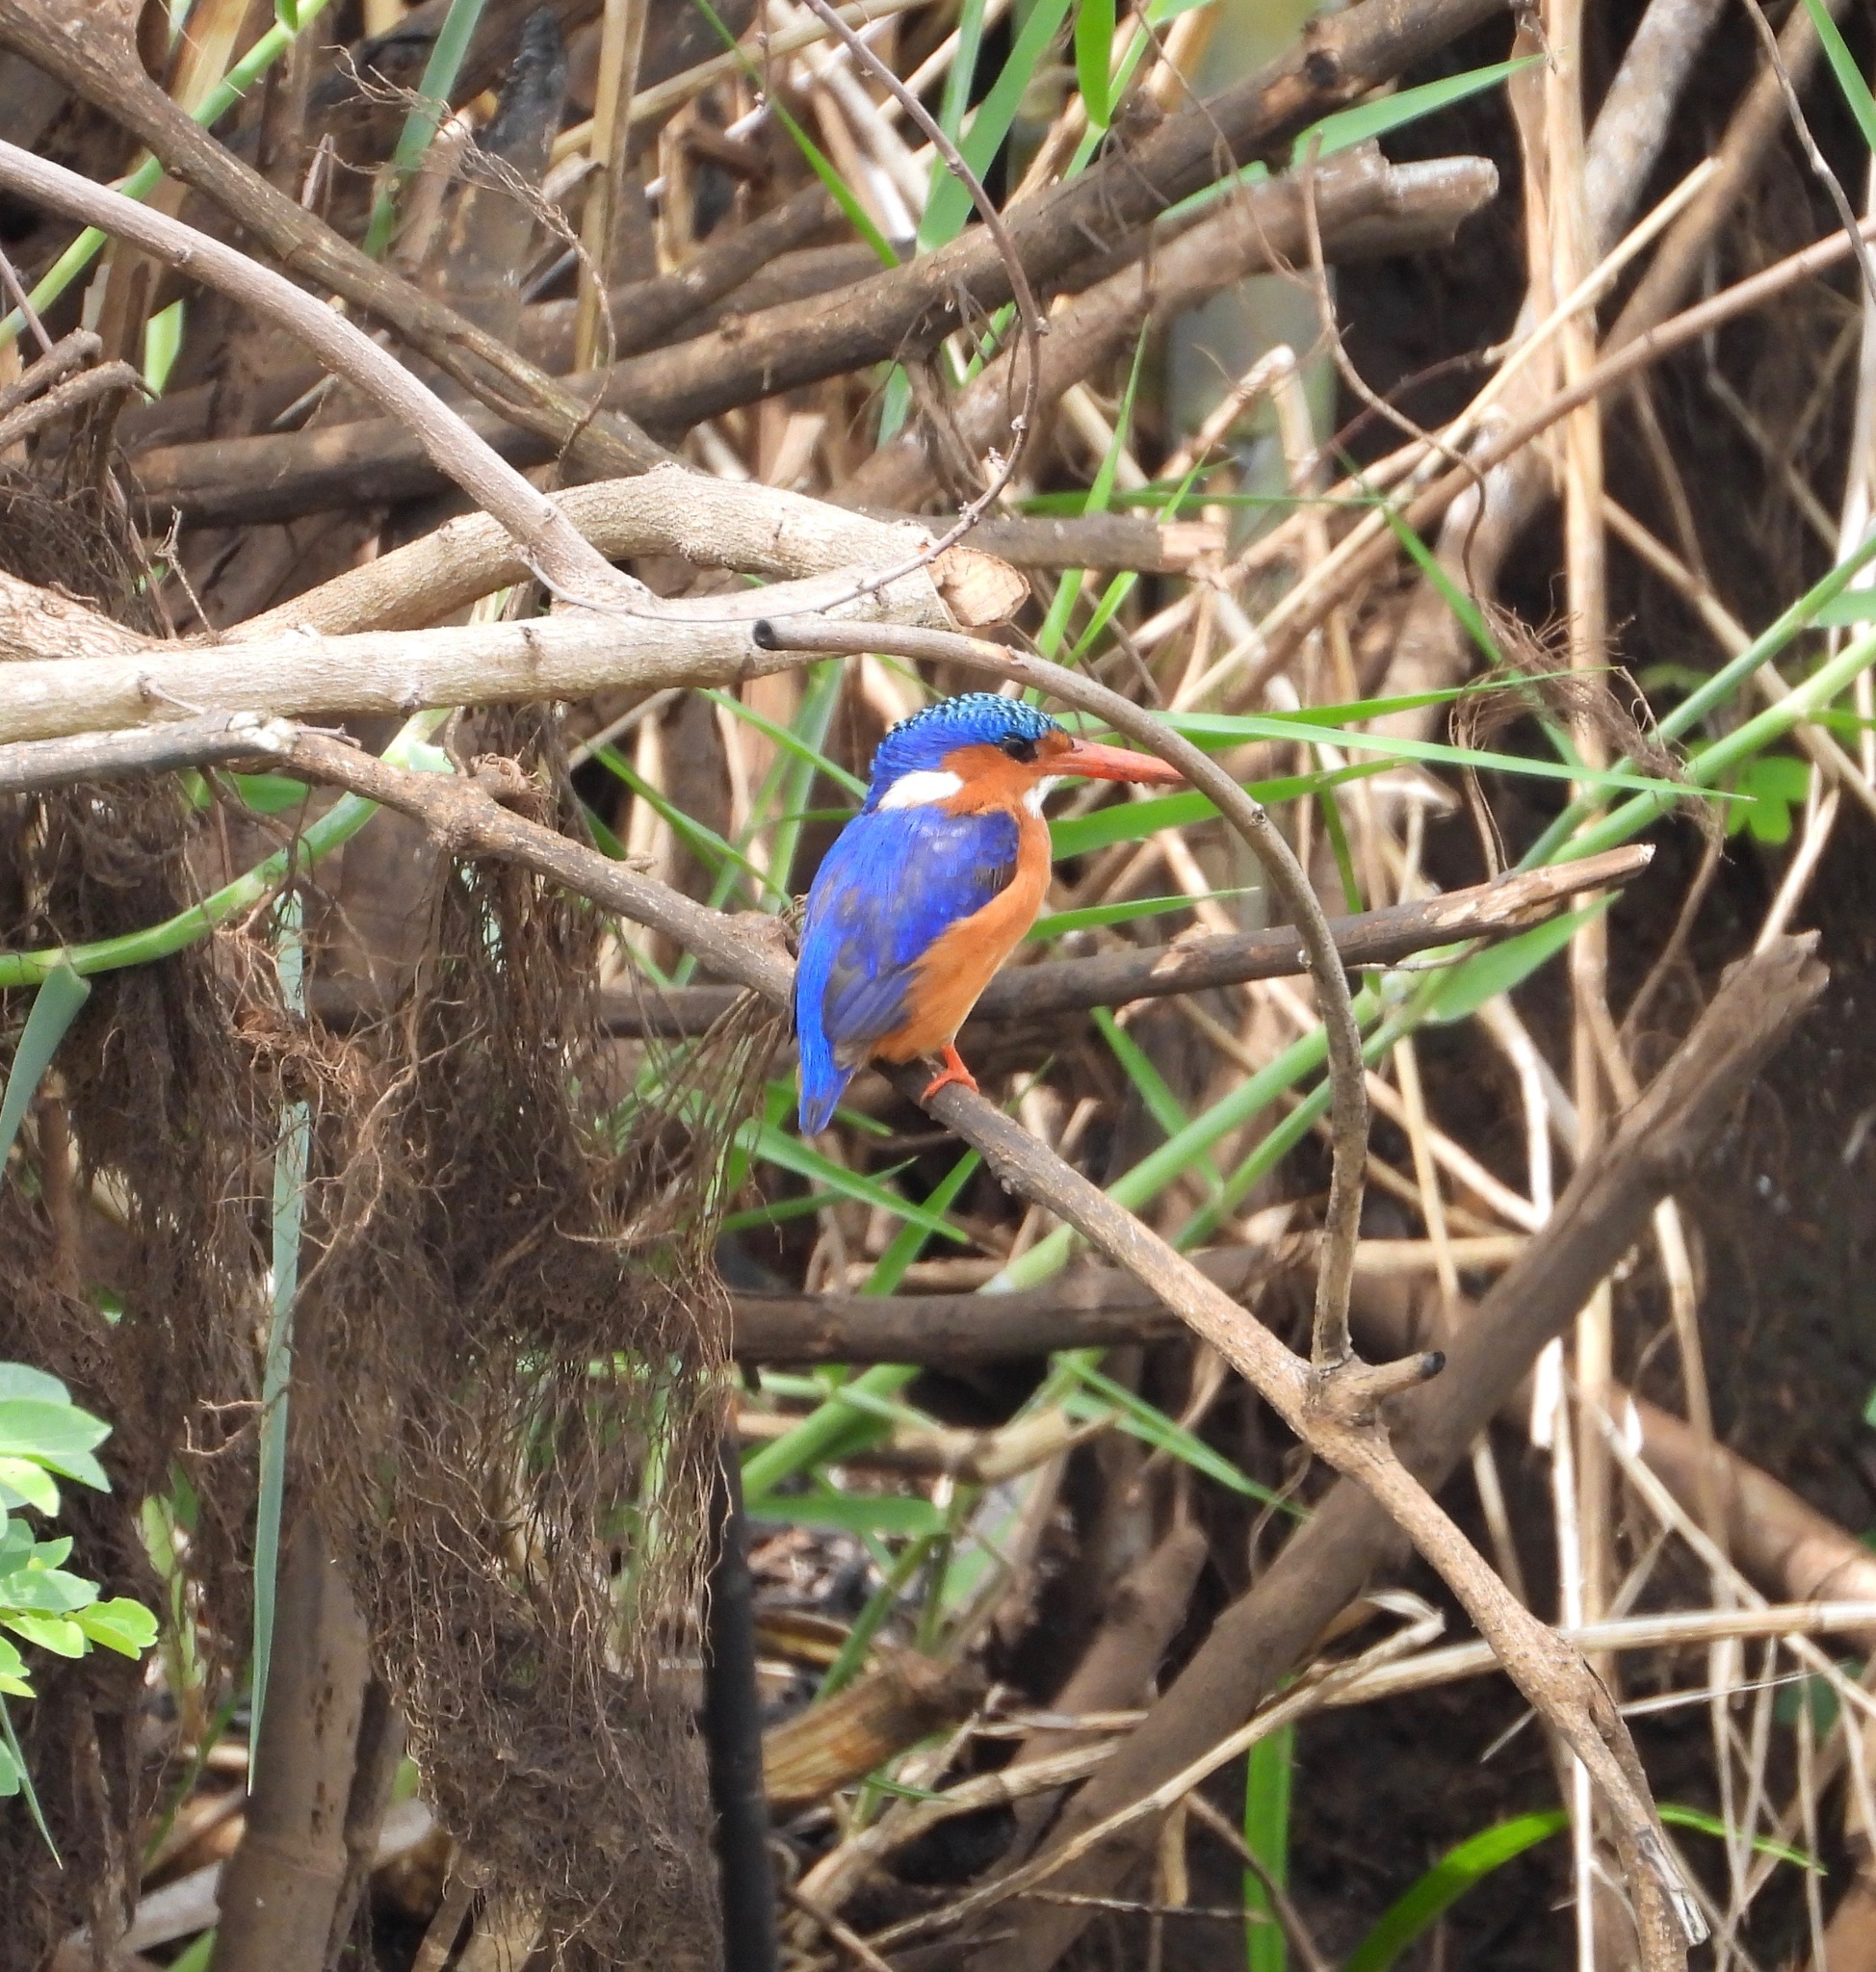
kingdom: Animalia
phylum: Chordata
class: Aves
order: Coraciiformes
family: Alcedinidae
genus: Corythornis
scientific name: Corythornis cristatus
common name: Malachite kingfisher
